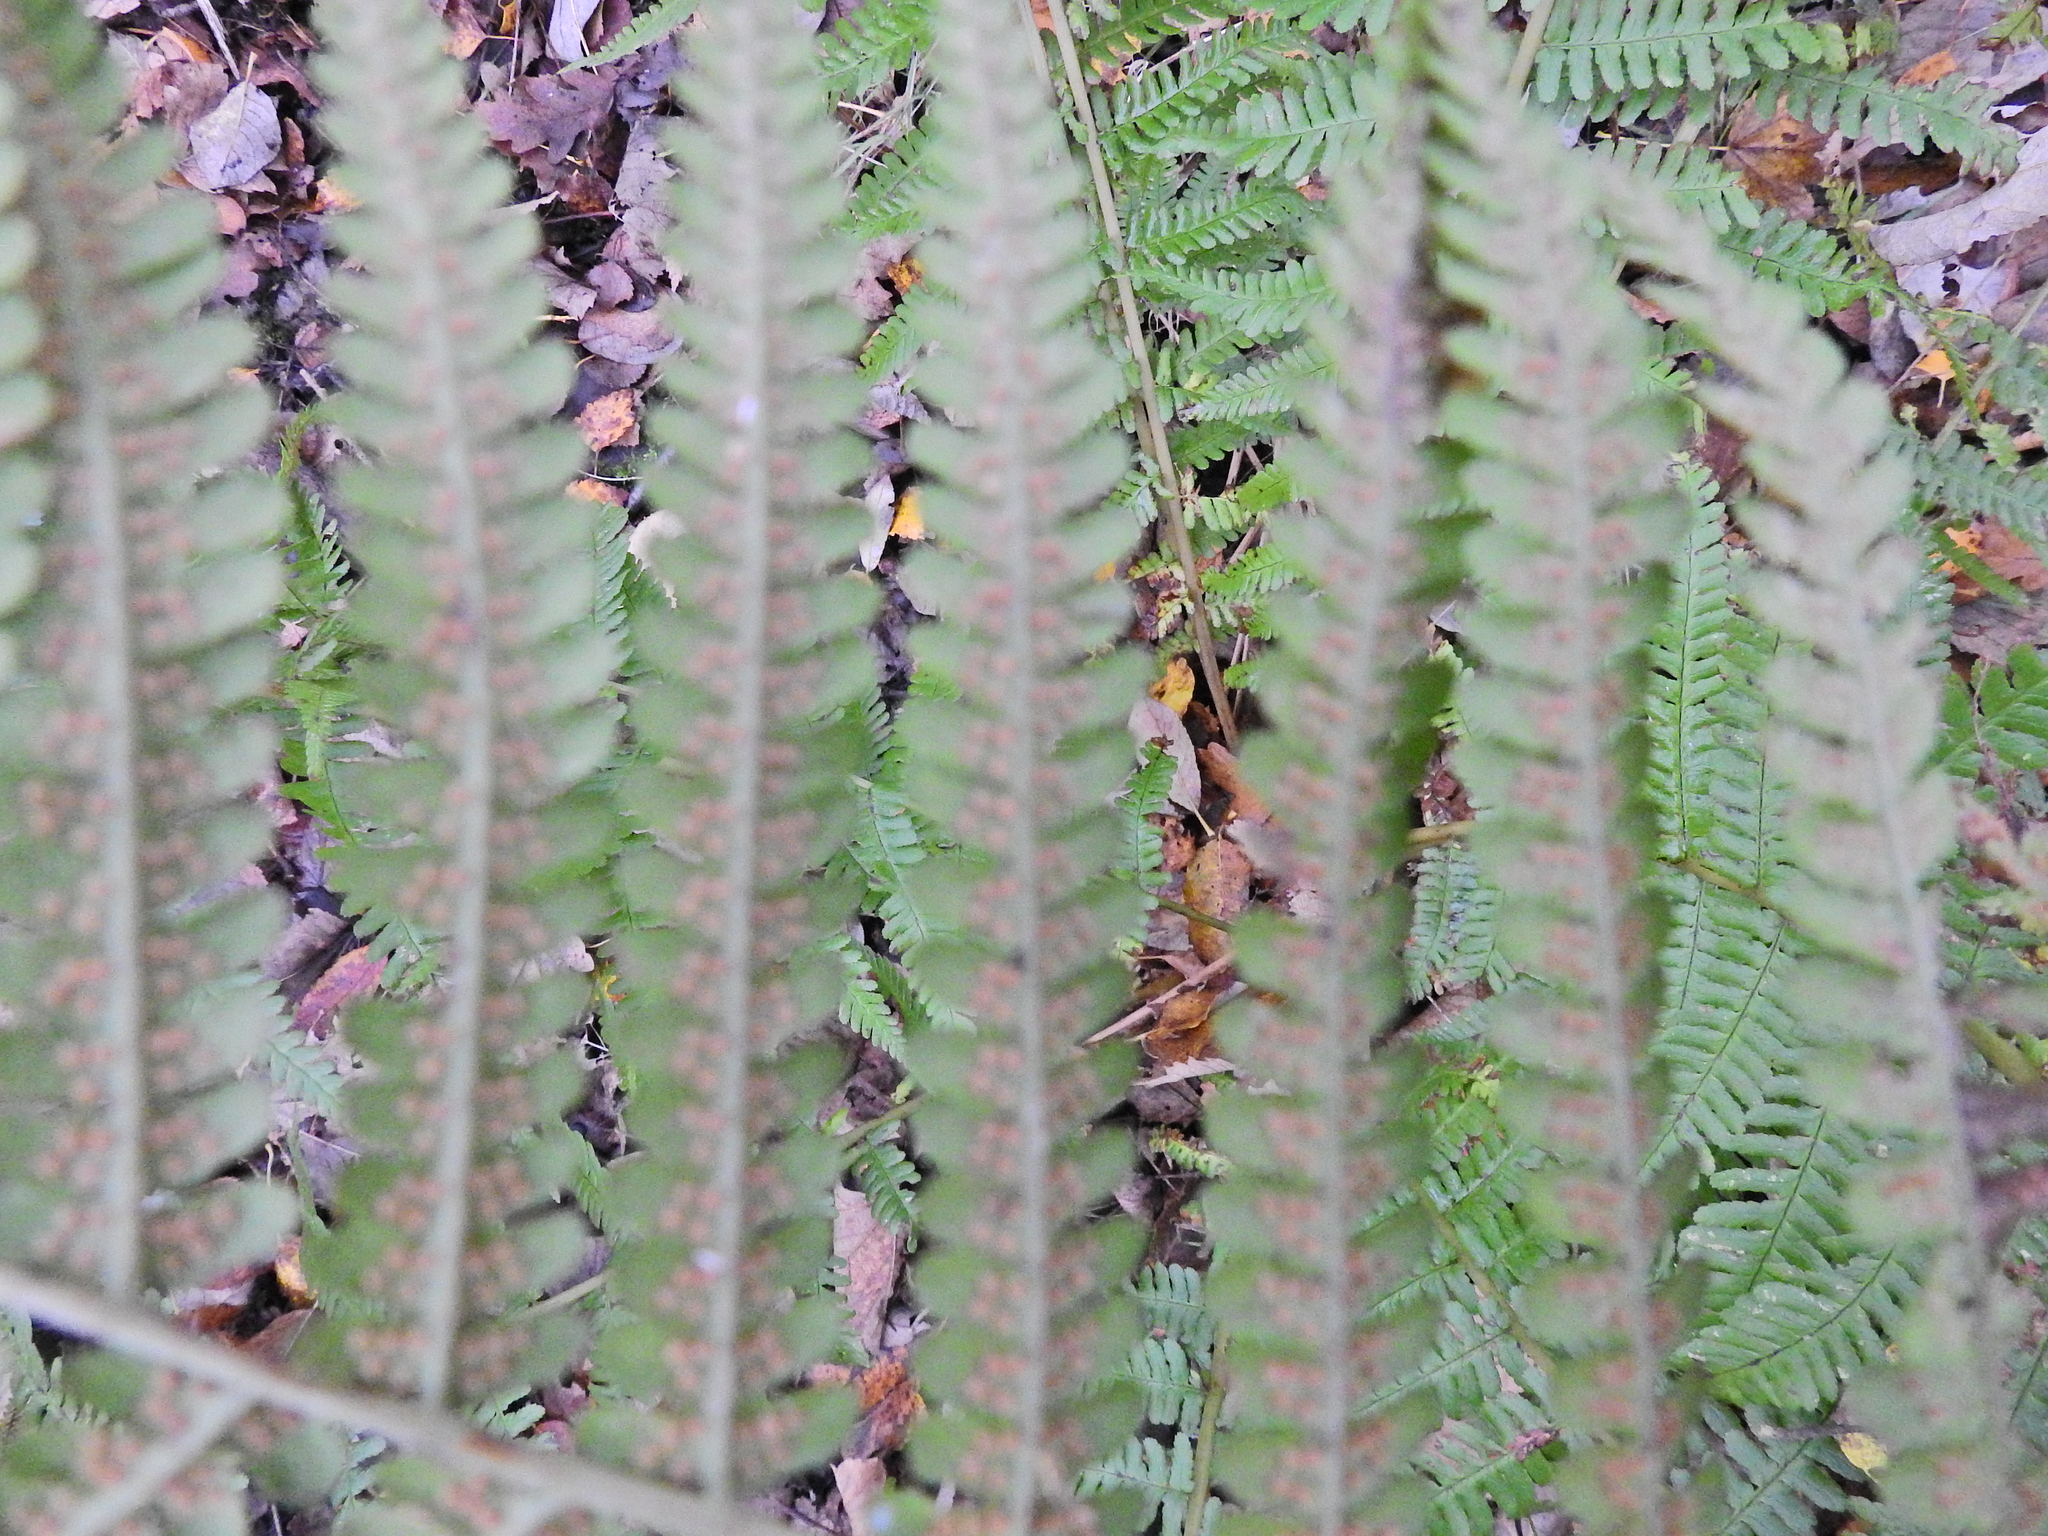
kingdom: Plantae
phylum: Tracheophyta
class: Polypodiopsida
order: Polypodiales
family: Dryopteridaceae
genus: Dryopteris
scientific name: Dryopteris filix-mas
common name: Male fern
